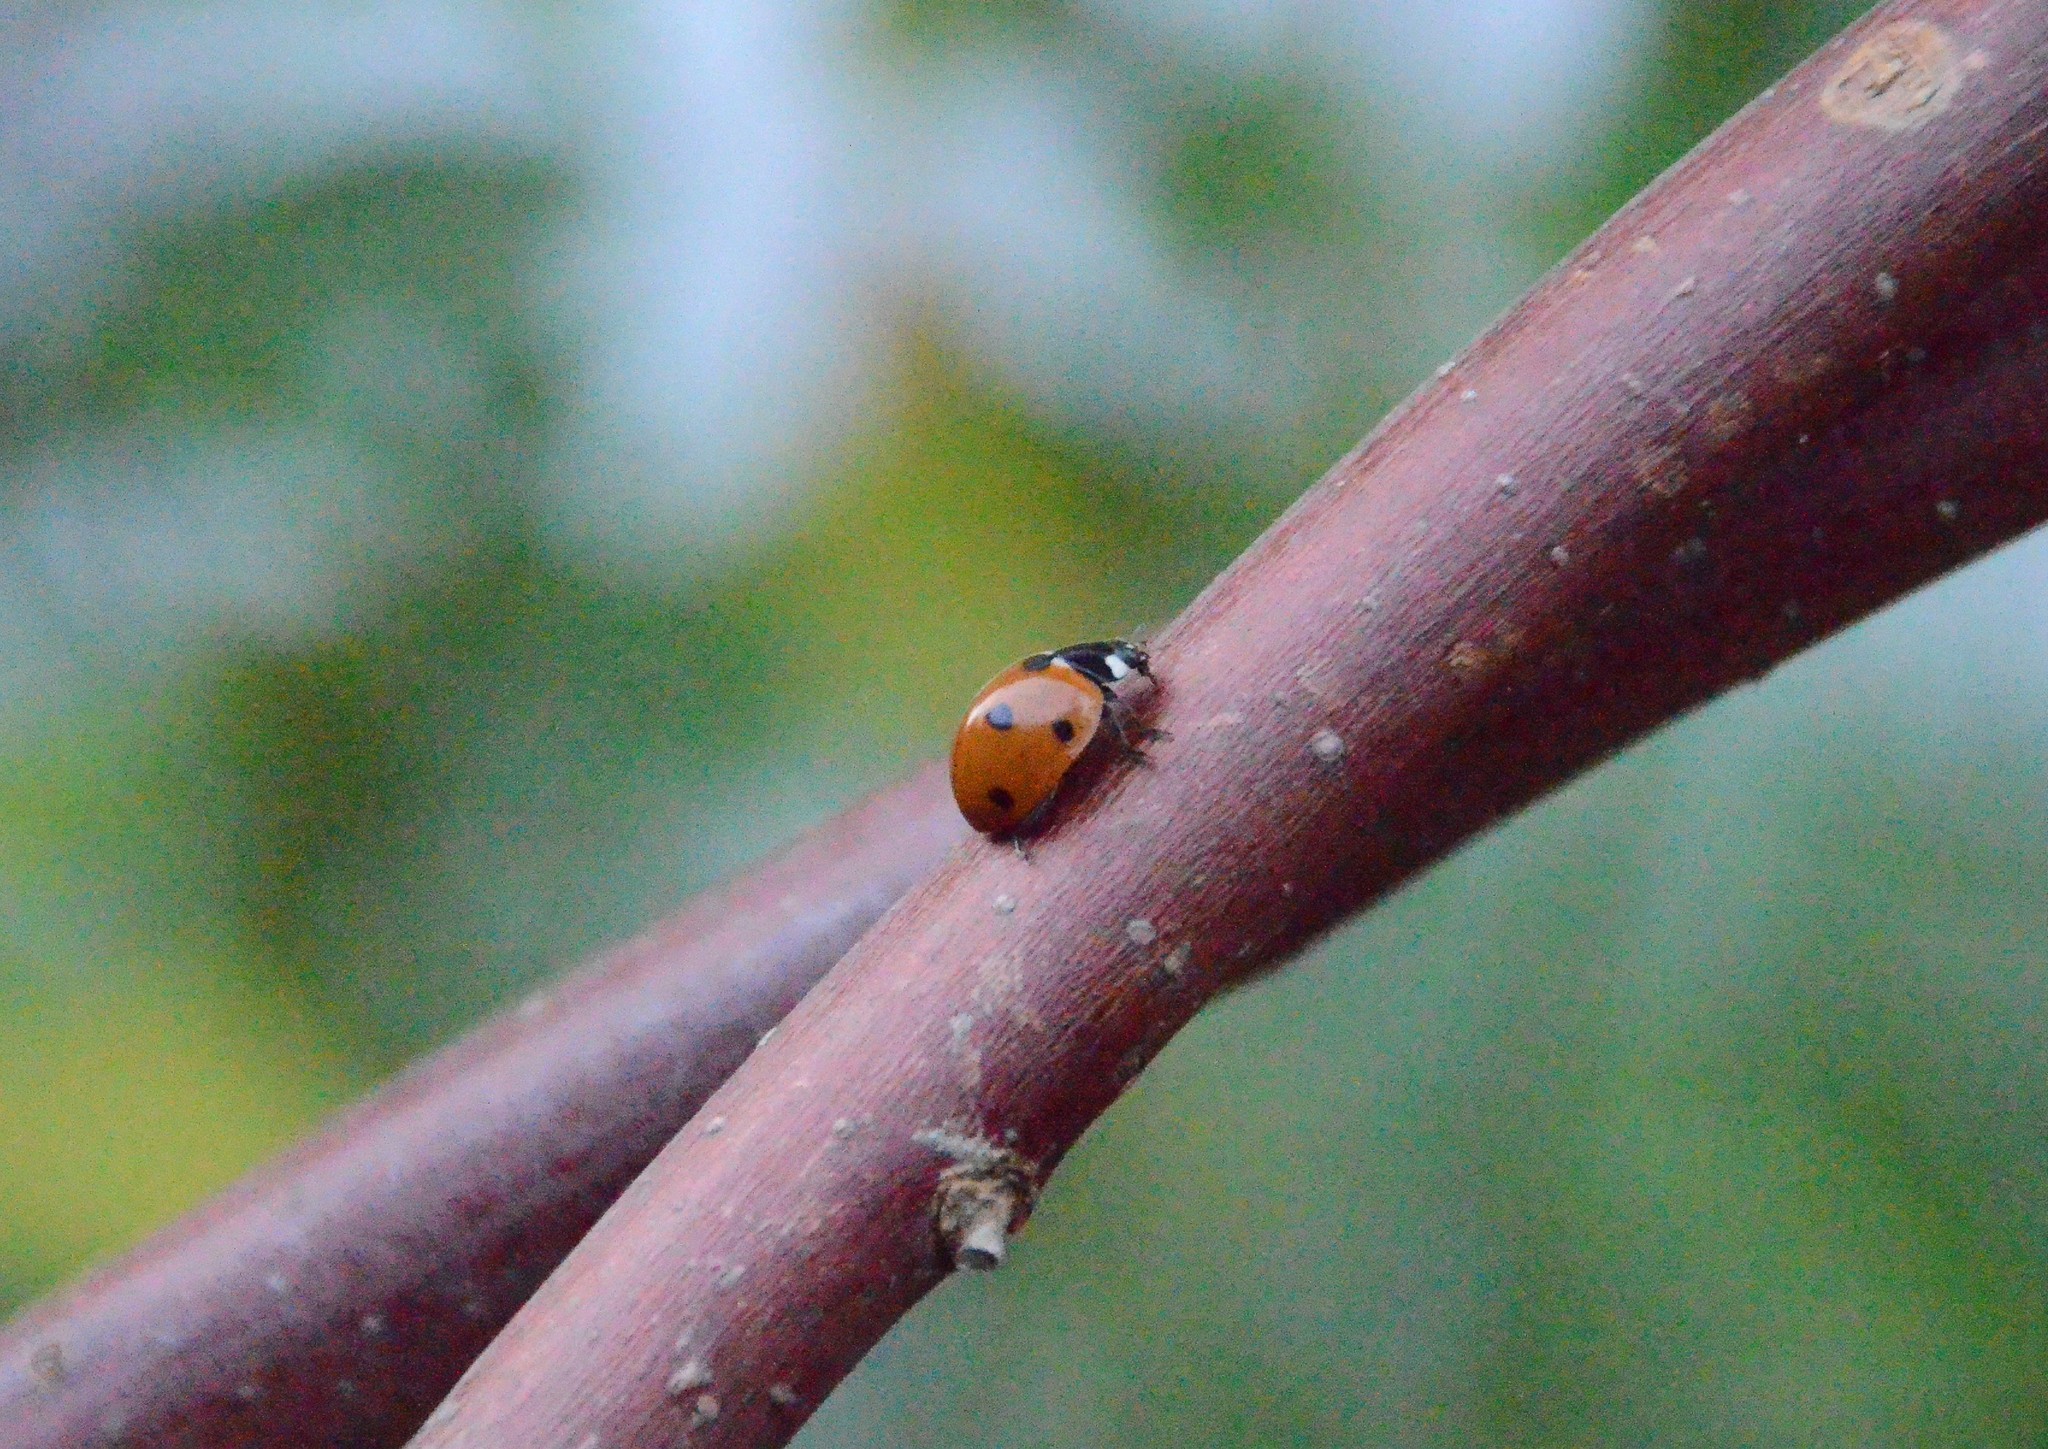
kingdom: Animalia
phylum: Arthropoda
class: Insecta
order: Coleoptera
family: Coccinellidae
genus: Coccinella
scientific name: Coccinella septempunctata
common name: Sevenspotted lady beetle
